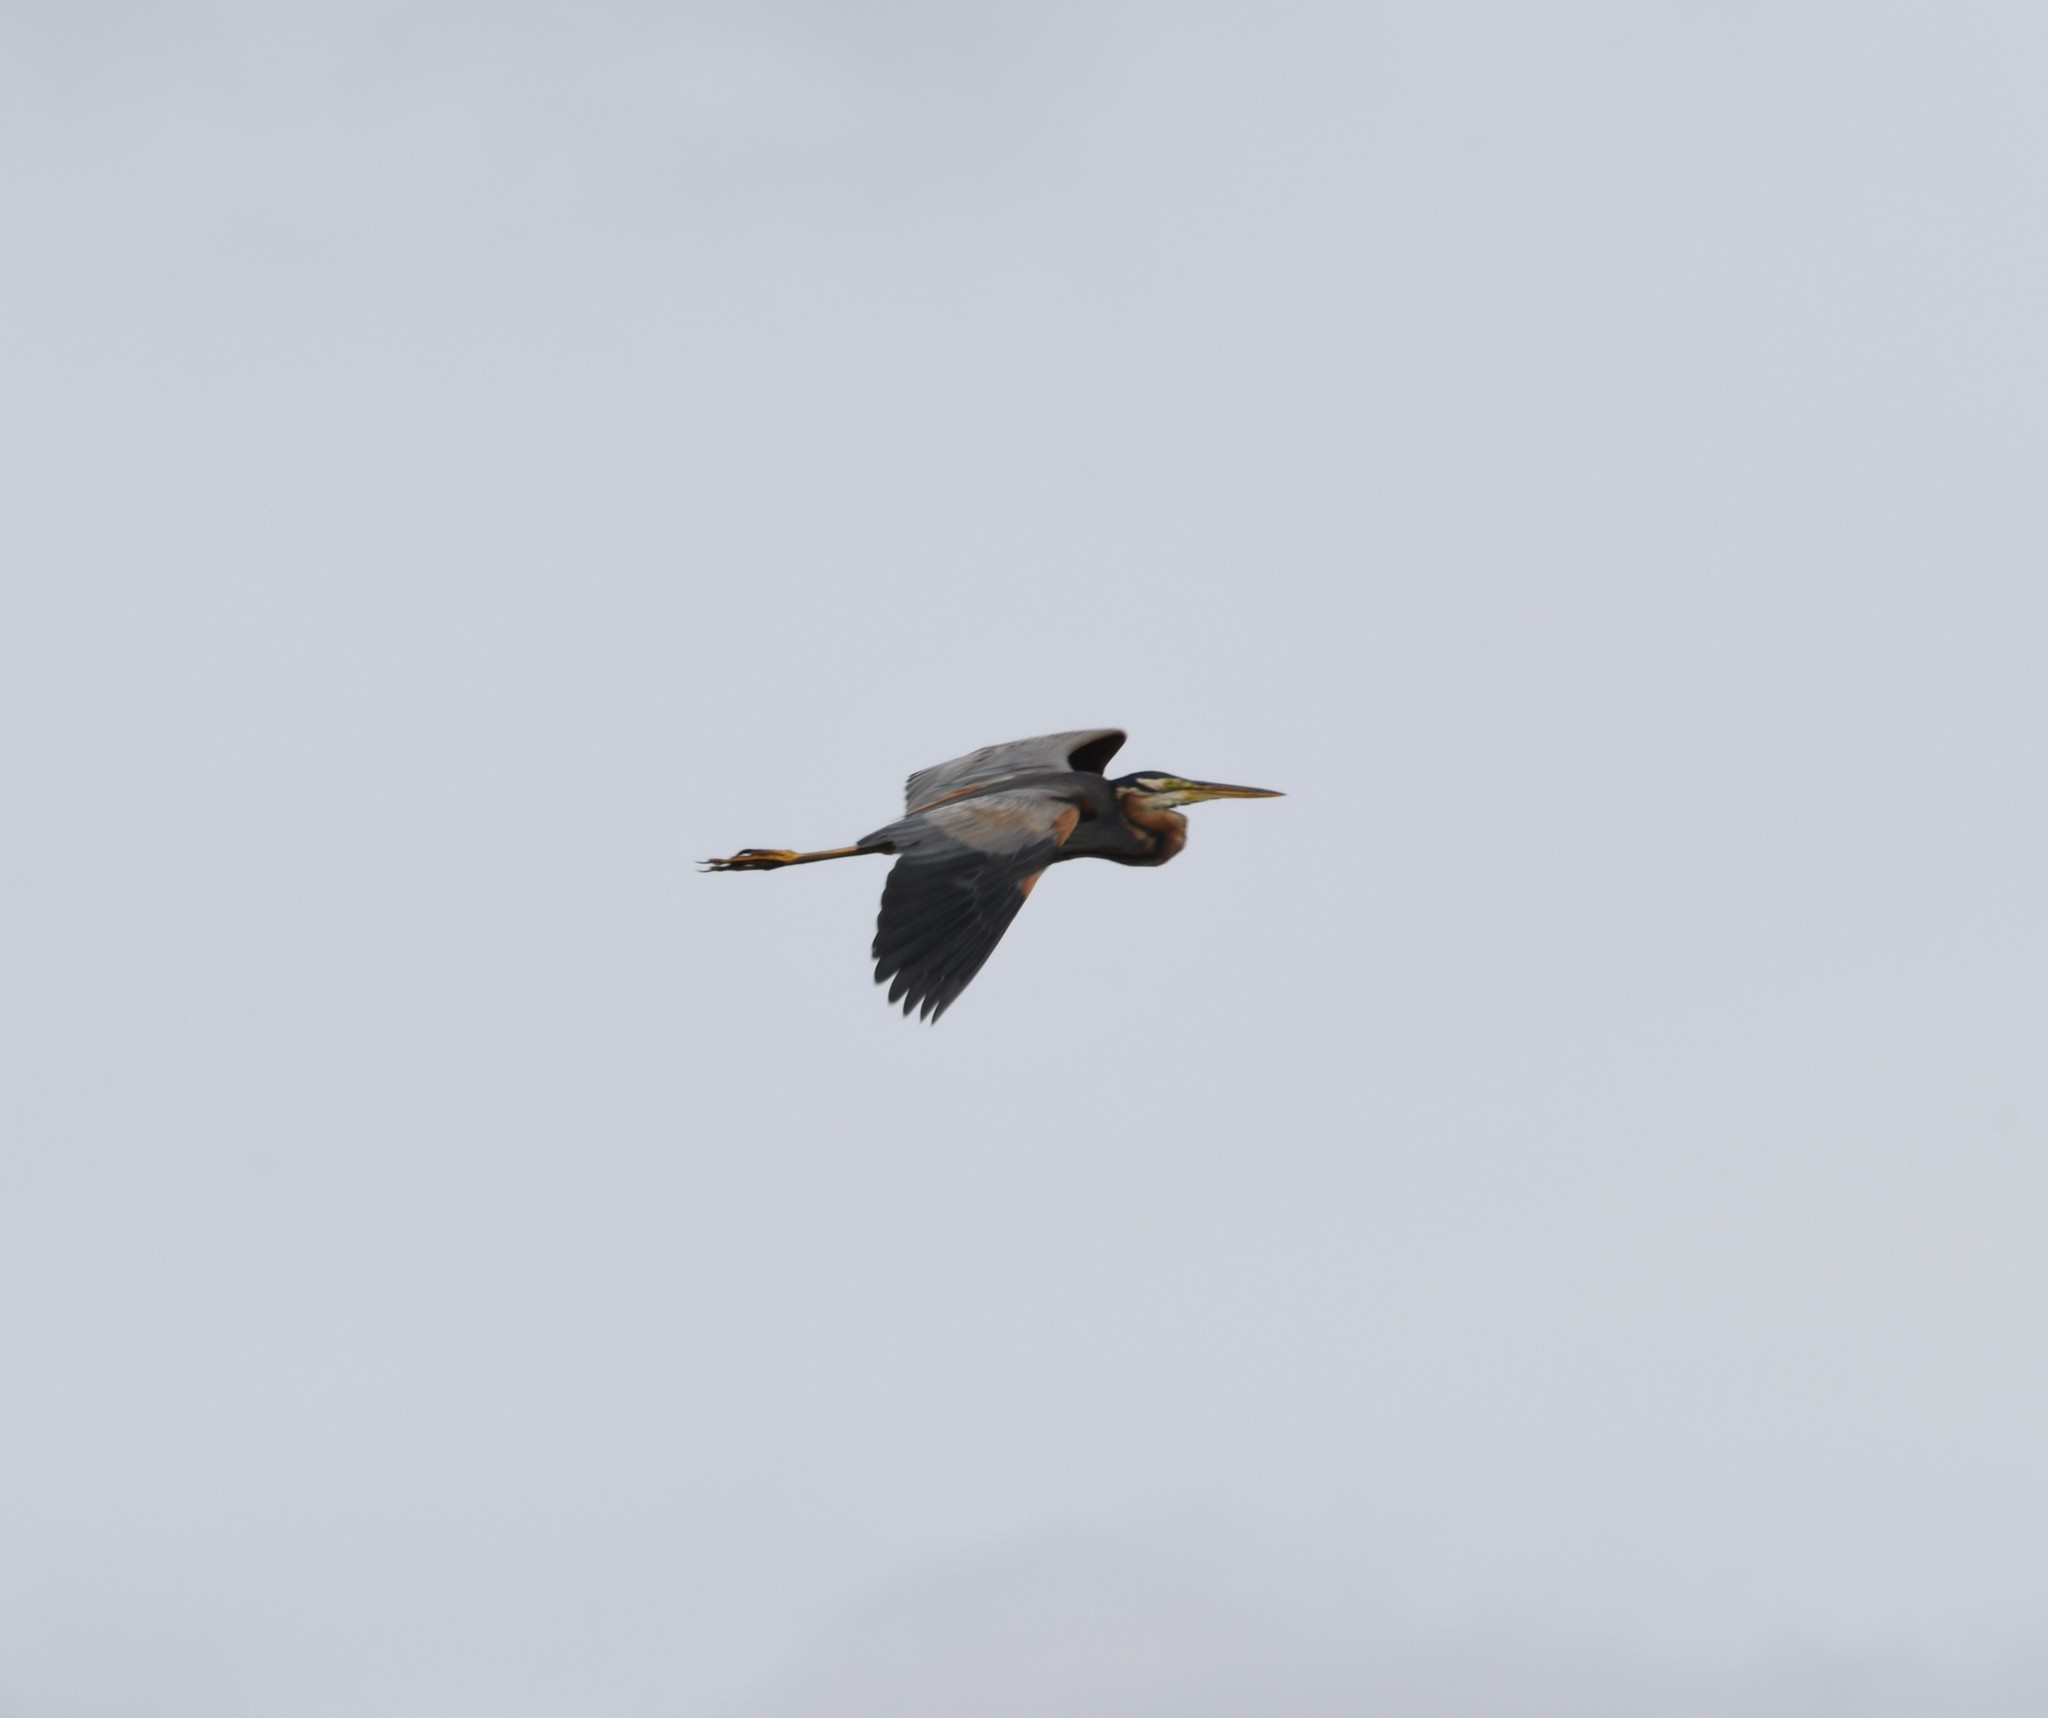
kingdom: Animalia
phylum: Chordata
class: Aves
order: Pelecaniformes
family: Ardeidae
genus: Ardea
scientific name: Ardea purpurea
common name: Purple heron
